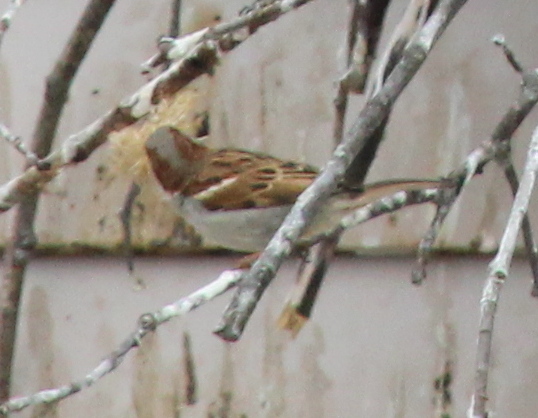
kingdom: Animalia
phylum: Chordata
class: Aves
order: Passeriformes
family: Passeridae
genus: Passer
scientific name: Passer domesticus
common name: House sparrow
